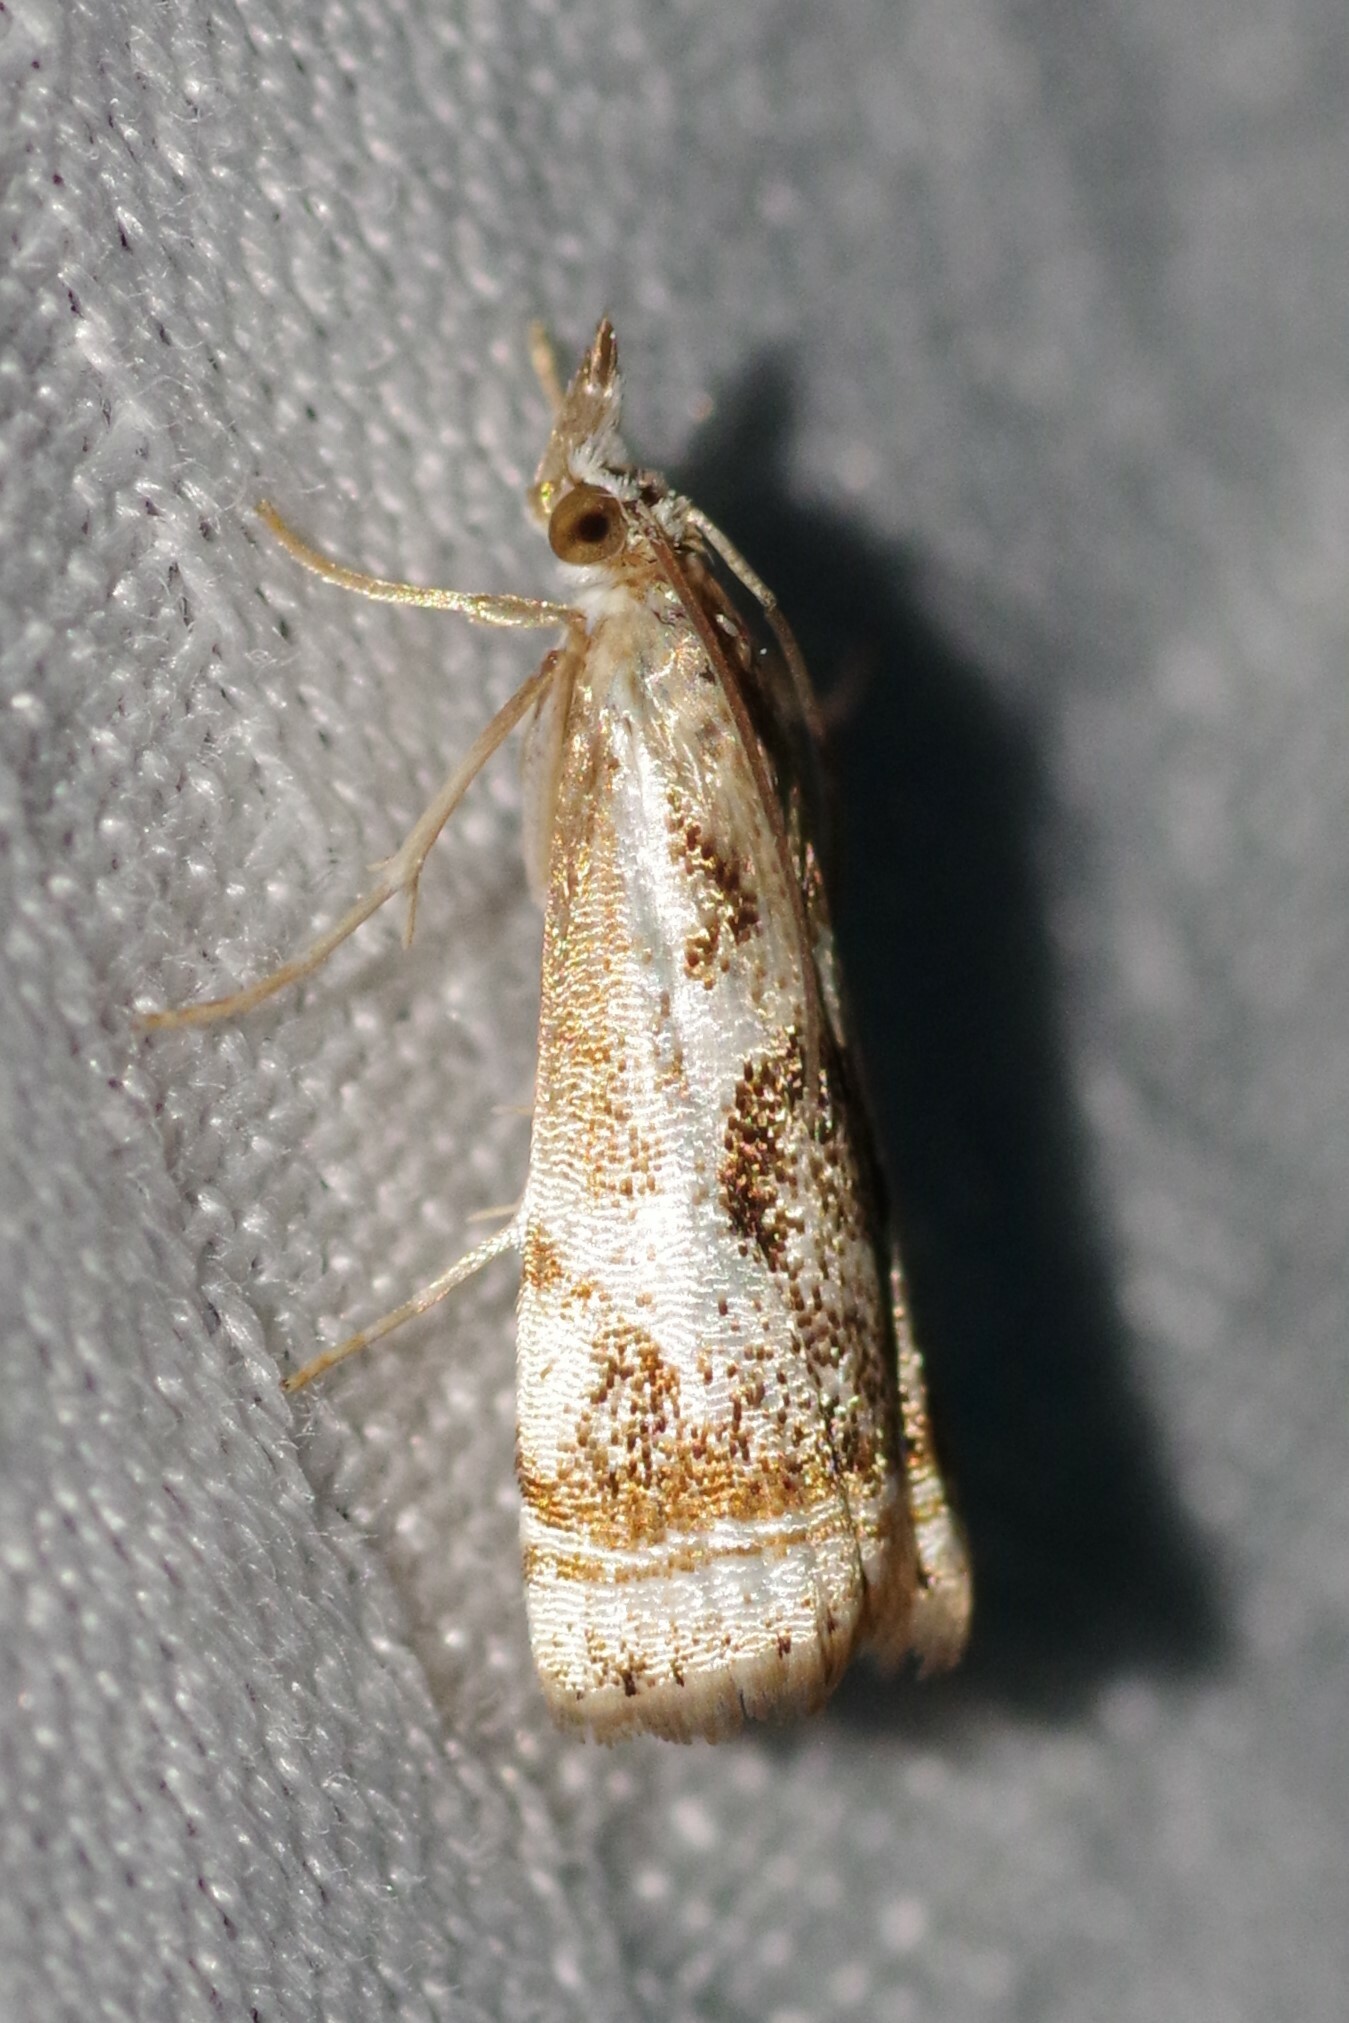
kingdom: Animalia
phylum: Arthropoda
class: Insecta
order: Lepidoptera
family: Crambidae
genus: Microcrambus
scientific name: Microcrambus elegans
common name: Elegant grass-veneer
